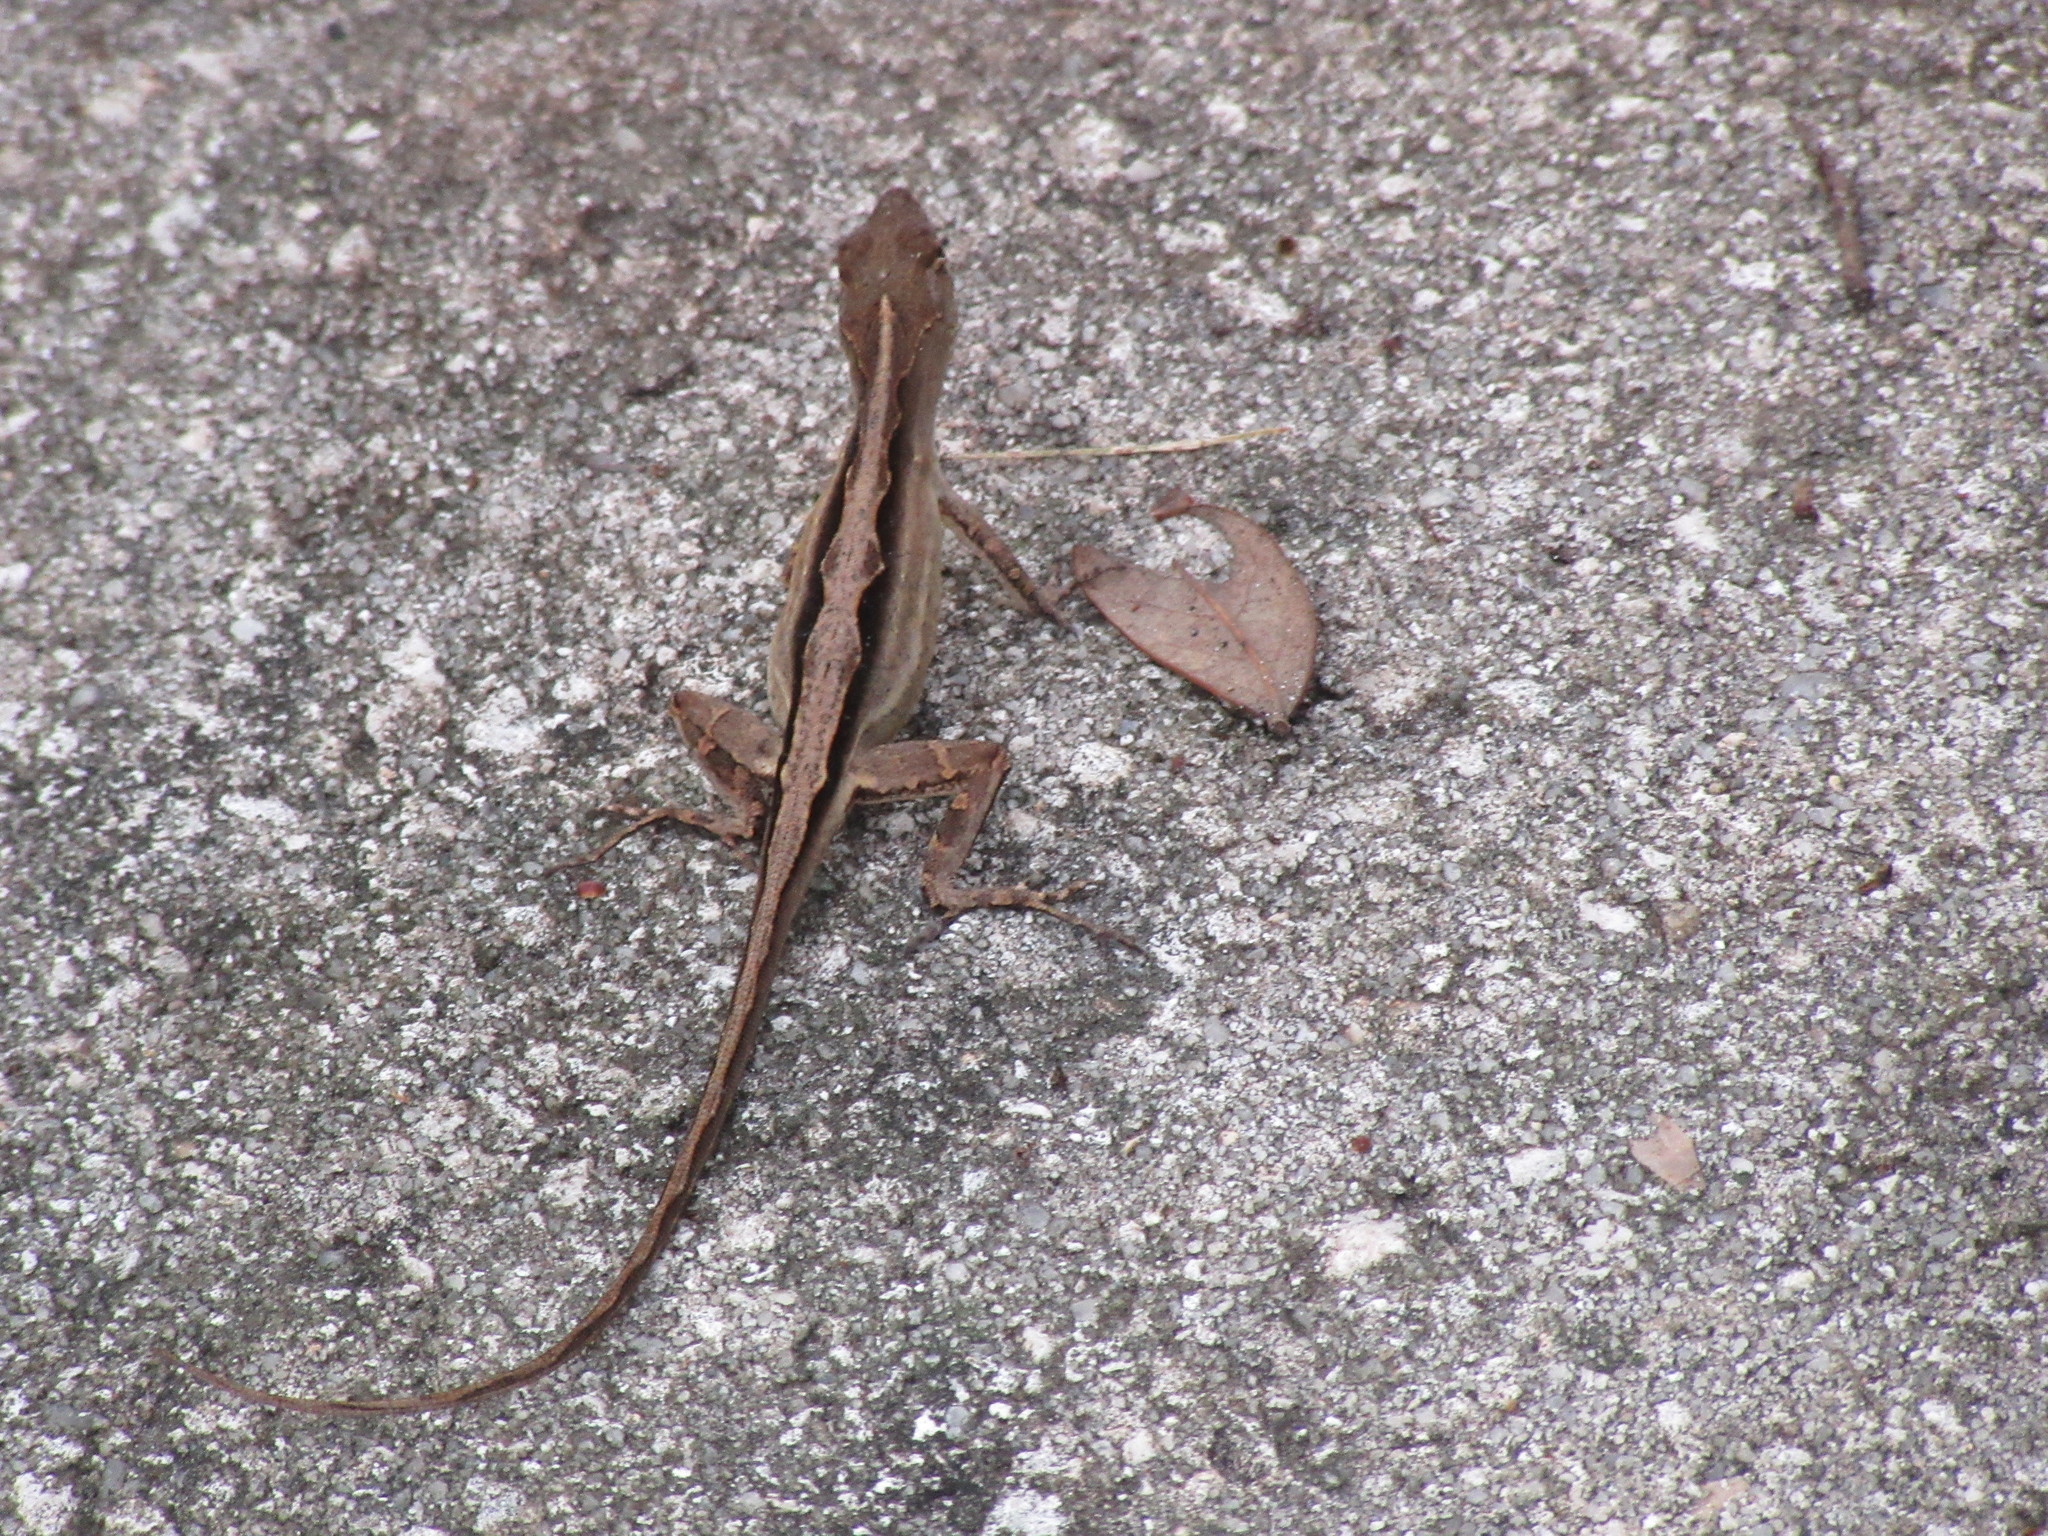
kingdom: Animalia
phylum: Chordata
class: Squamata
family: Dactyloidae
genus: Anolis
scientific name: Anolis sagrei
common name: Brown anole
